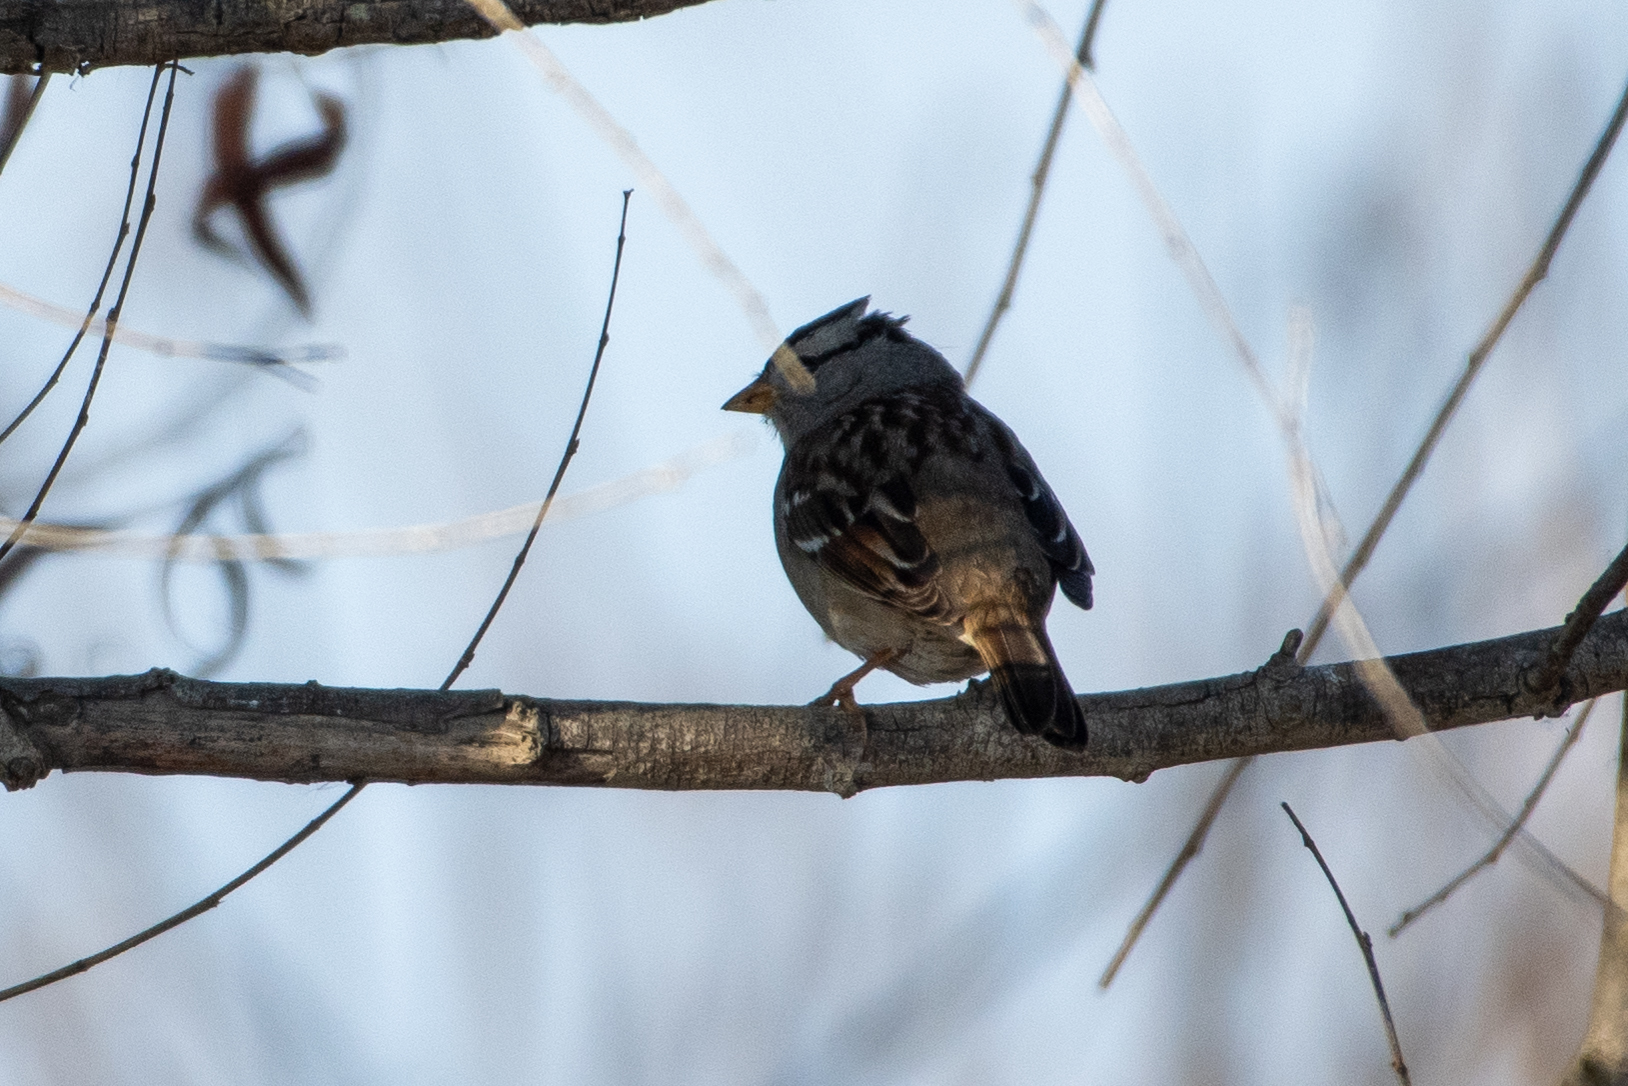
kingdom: Animalia
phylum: Chordata
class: Aves
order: Passeriformes
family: Passerellidae
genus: Zonotrichia
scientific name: Zonotrichia leucophrys
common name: White-crowned sparrow
